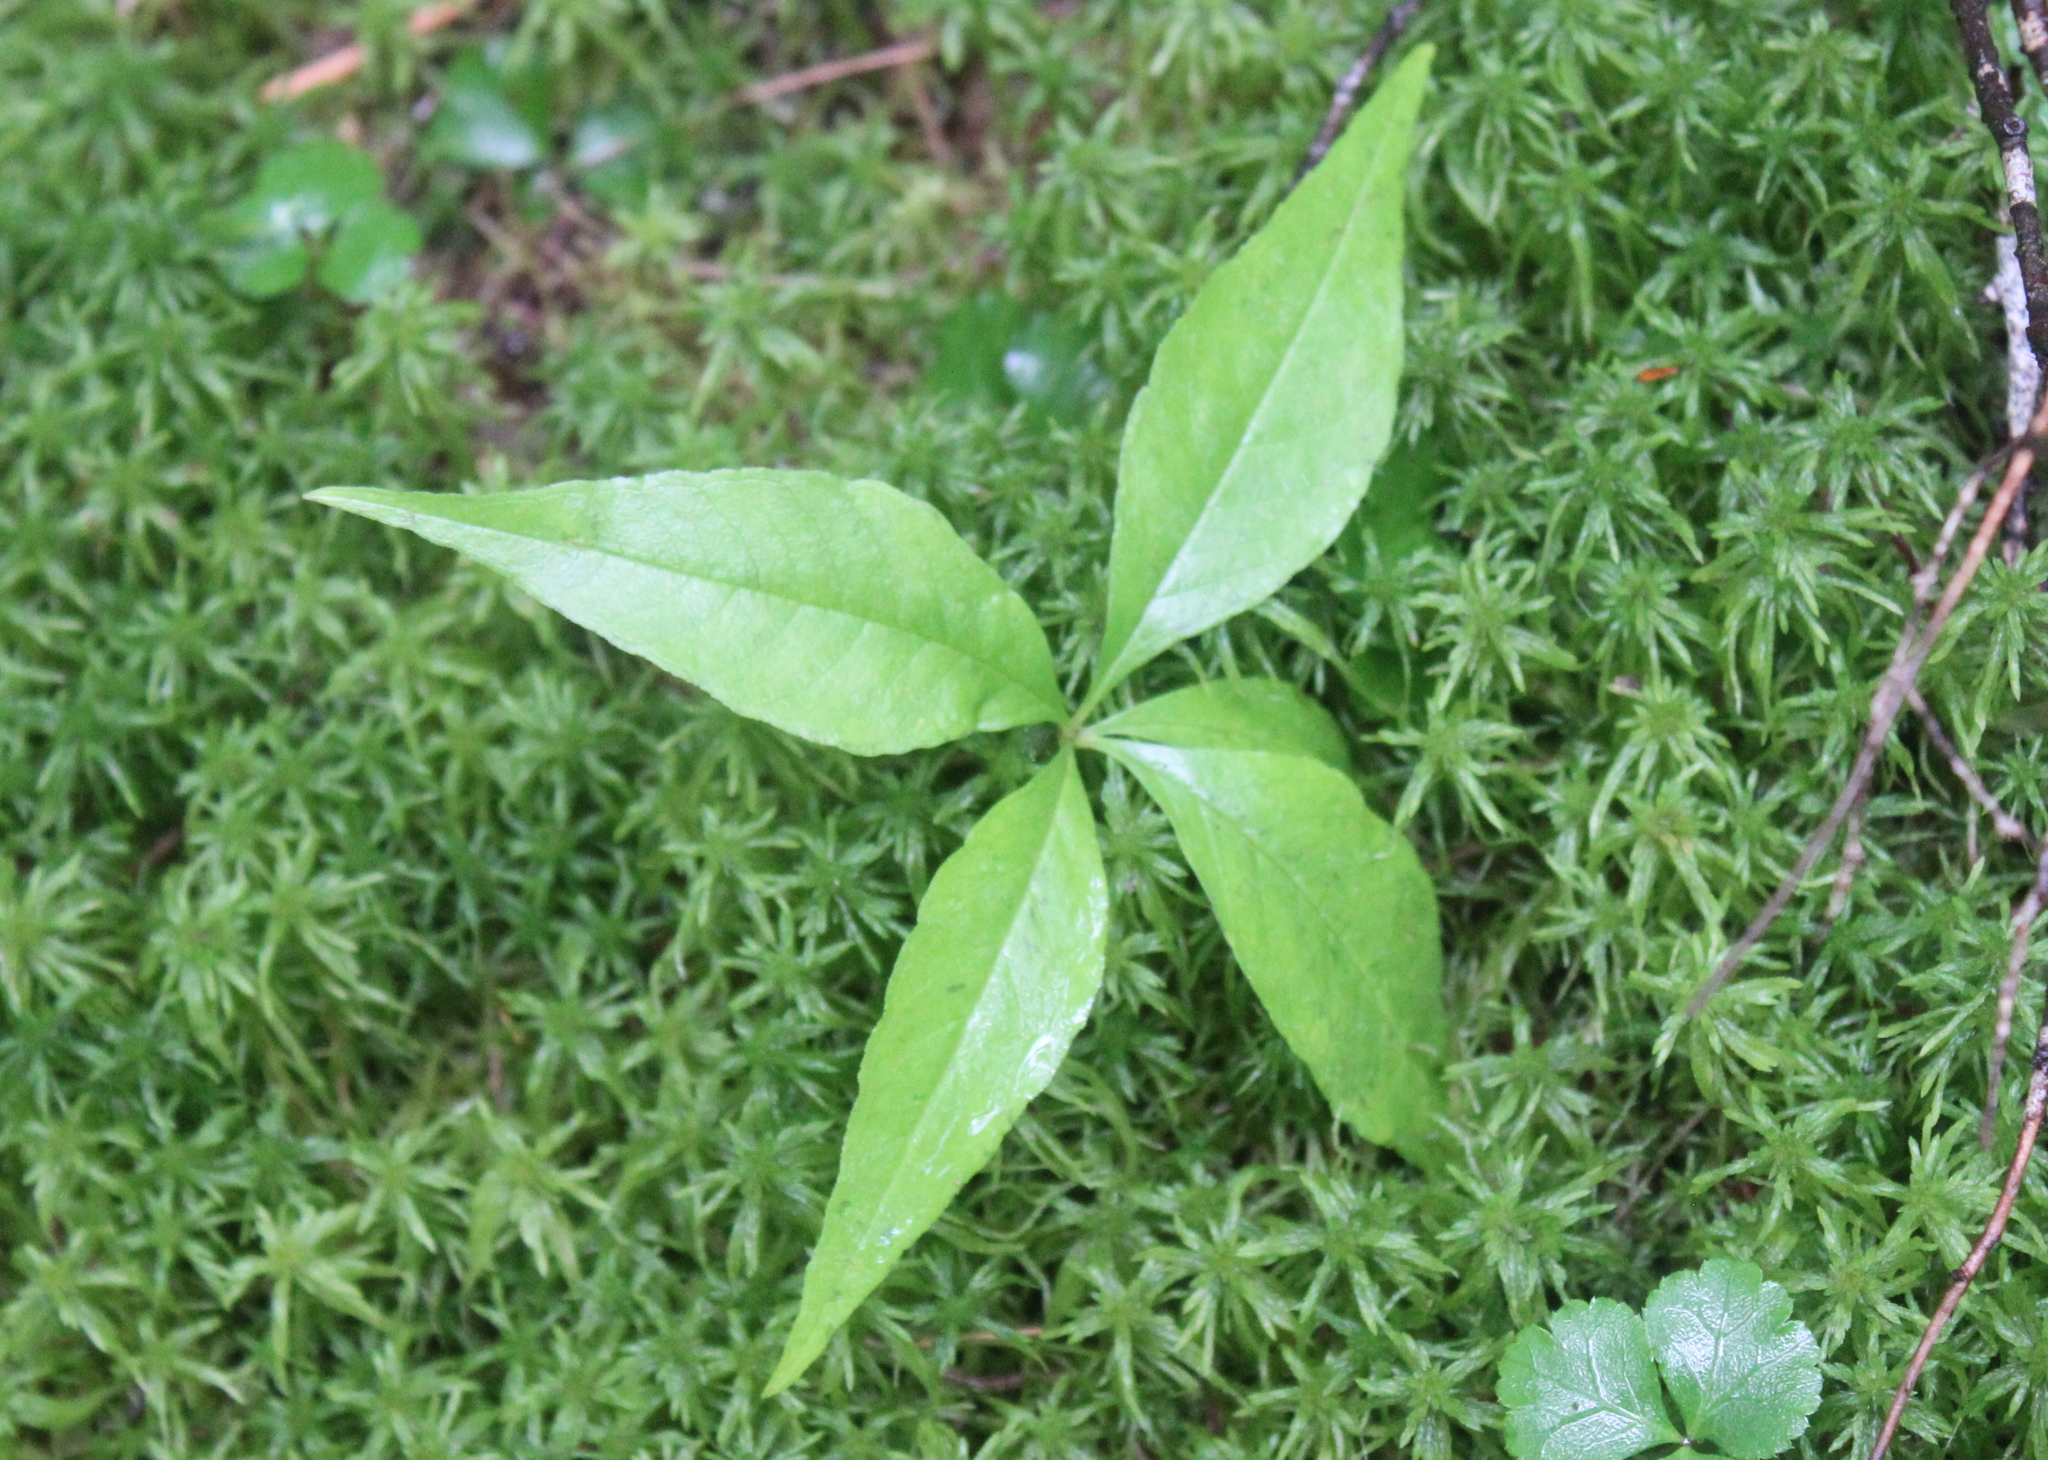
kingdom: Plantae
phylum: Tracheophyta
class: Magnoliopsida
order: Ericales
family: Primulaceae
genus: Lysimachia
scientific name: Lysimachia borealis
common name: American starflower
